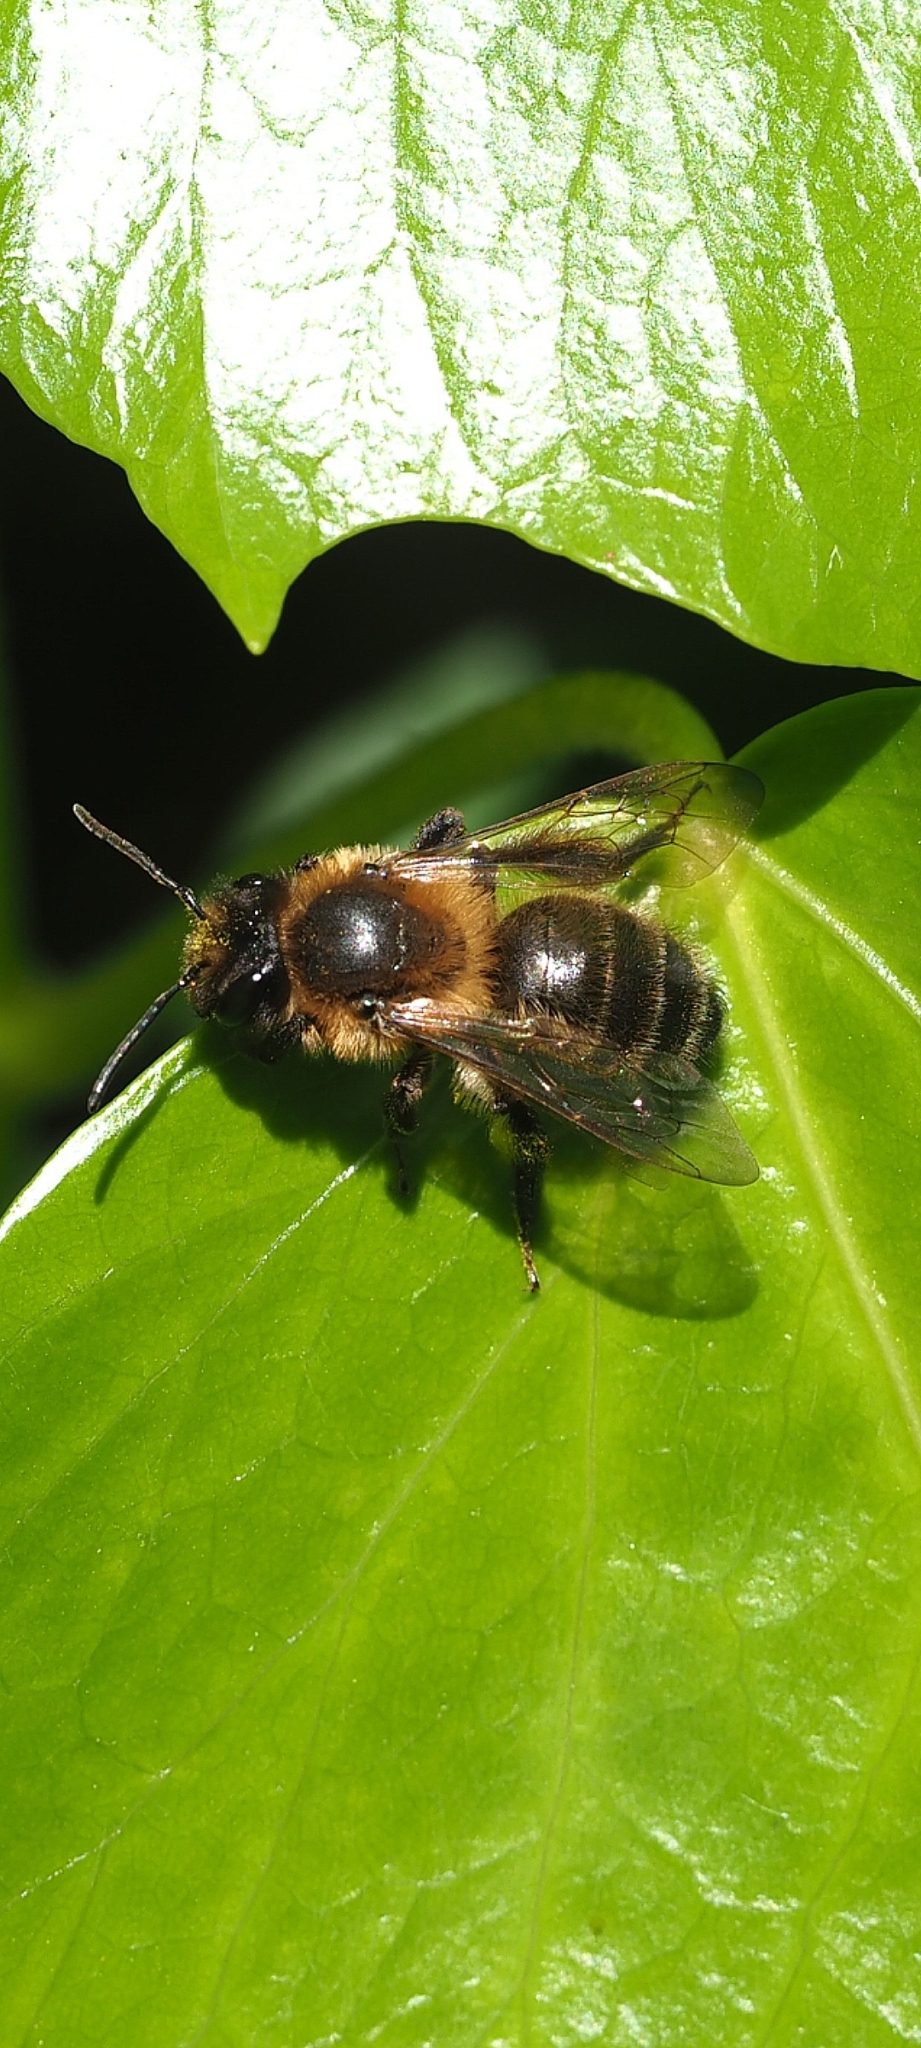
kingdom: Animalia
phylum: Arthropoda
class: Insecta
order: Hymenoptera
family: Andrenidae
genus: Andrena
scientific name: Andrena carantonica
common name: Chocolate mining bee
